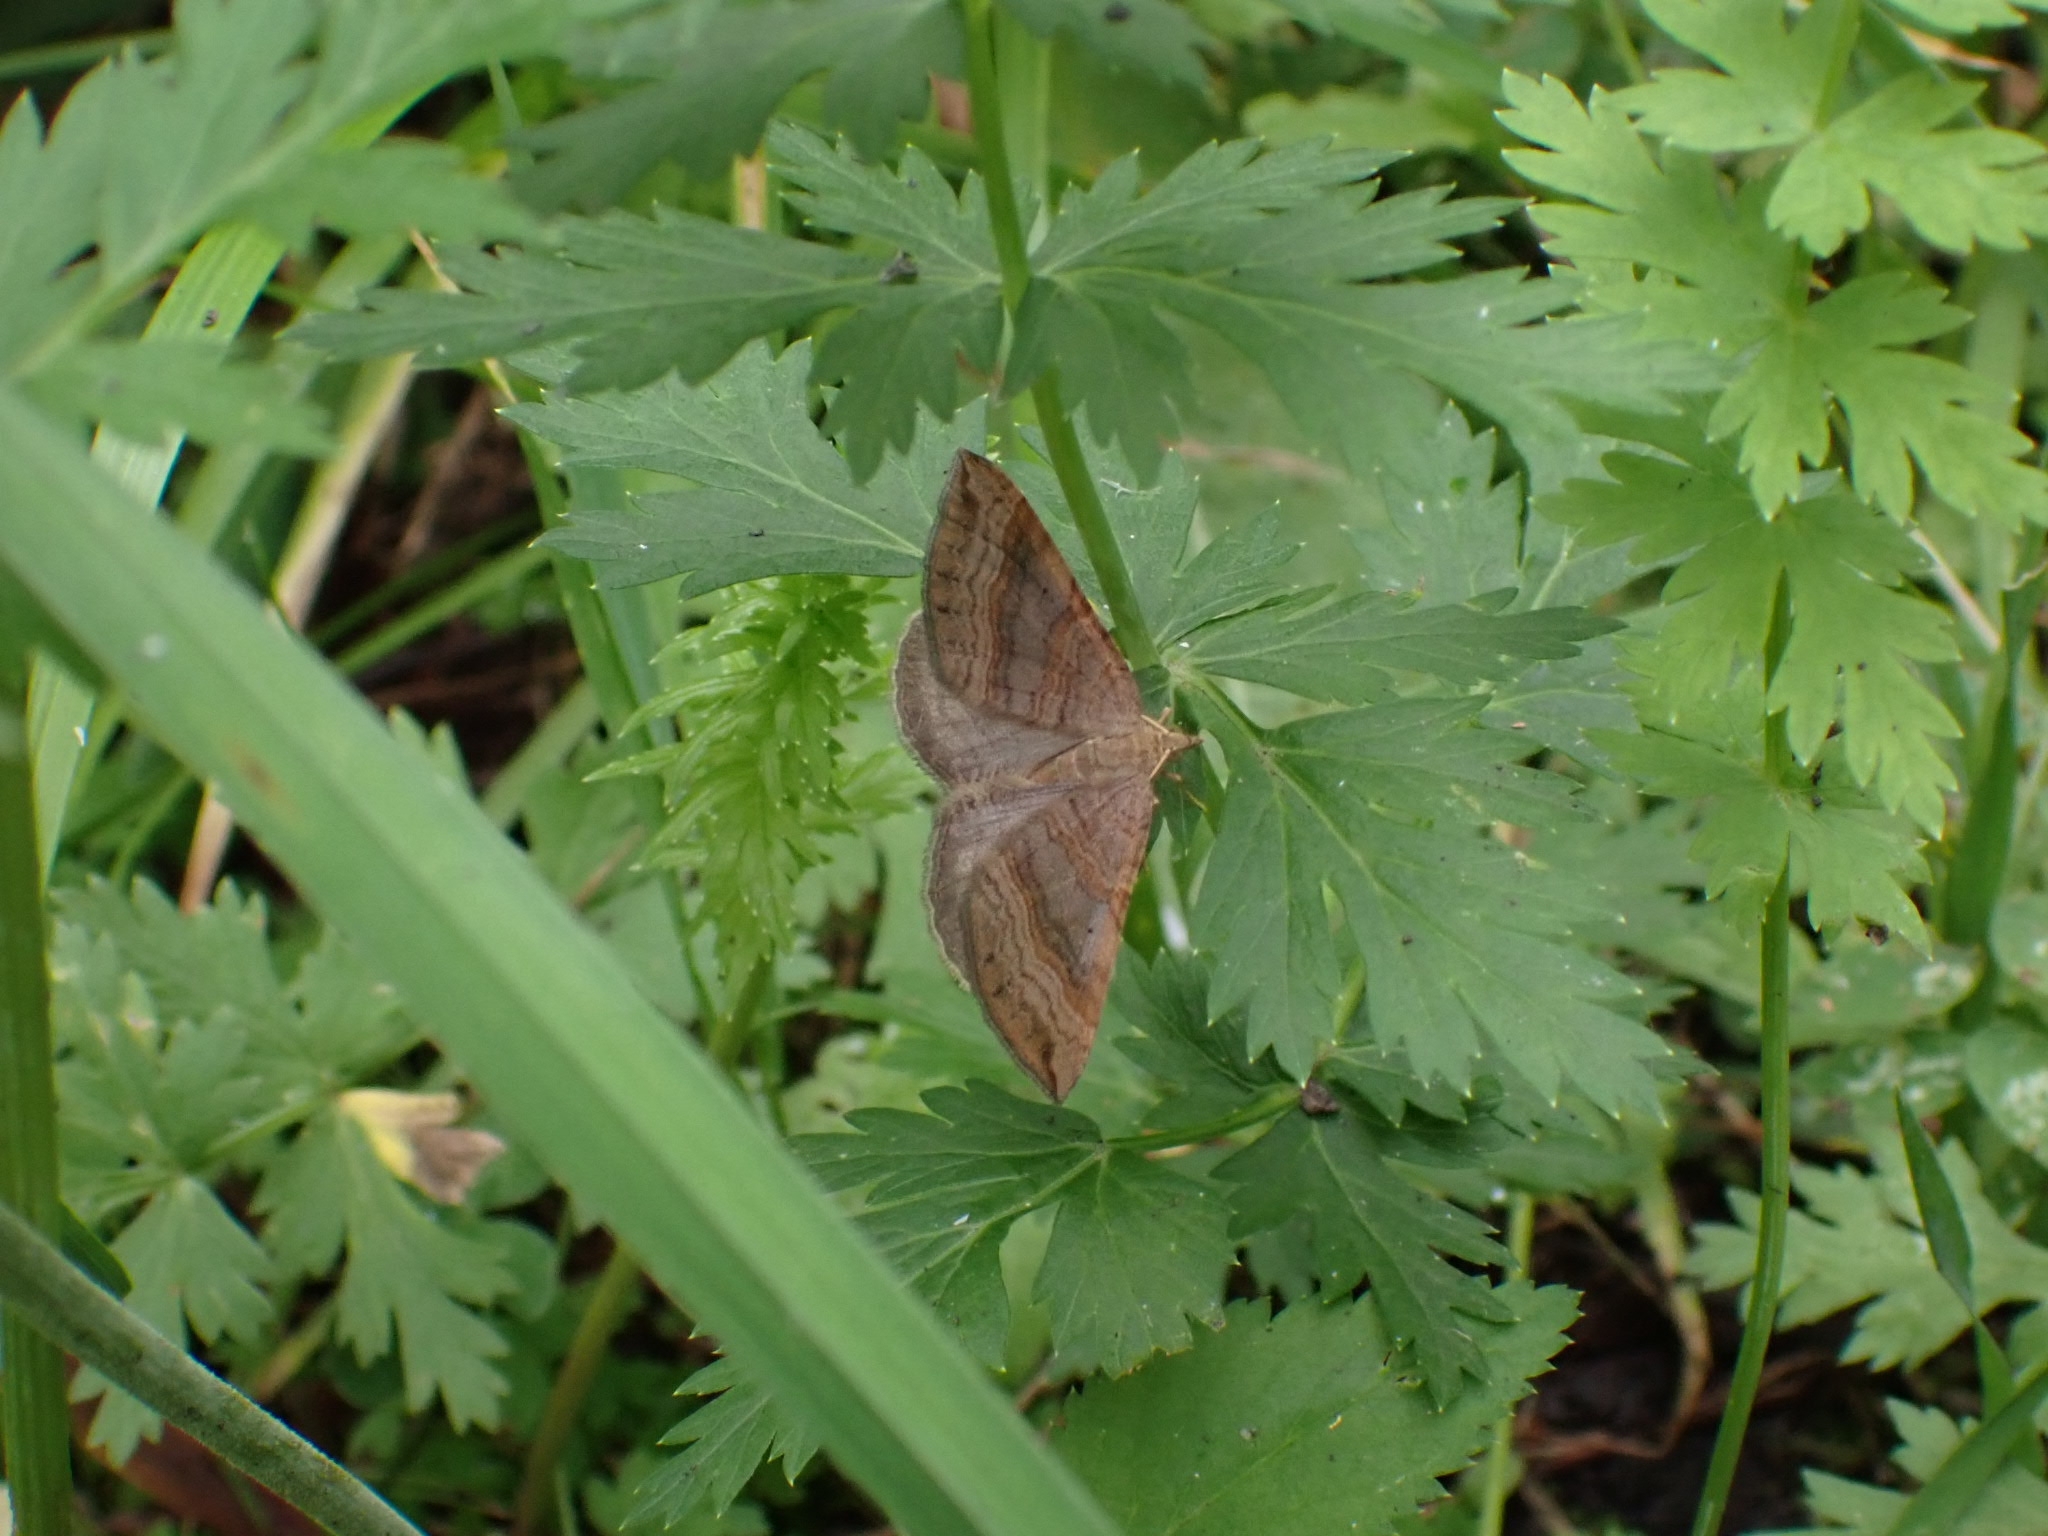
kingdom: Animalia
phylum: Arthropoda
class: Insecta
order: Lepidoptera
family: Geometridae
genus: Scotopteryx
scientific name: Scotopteryx chenopodiata
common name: Shaded broad-bar
